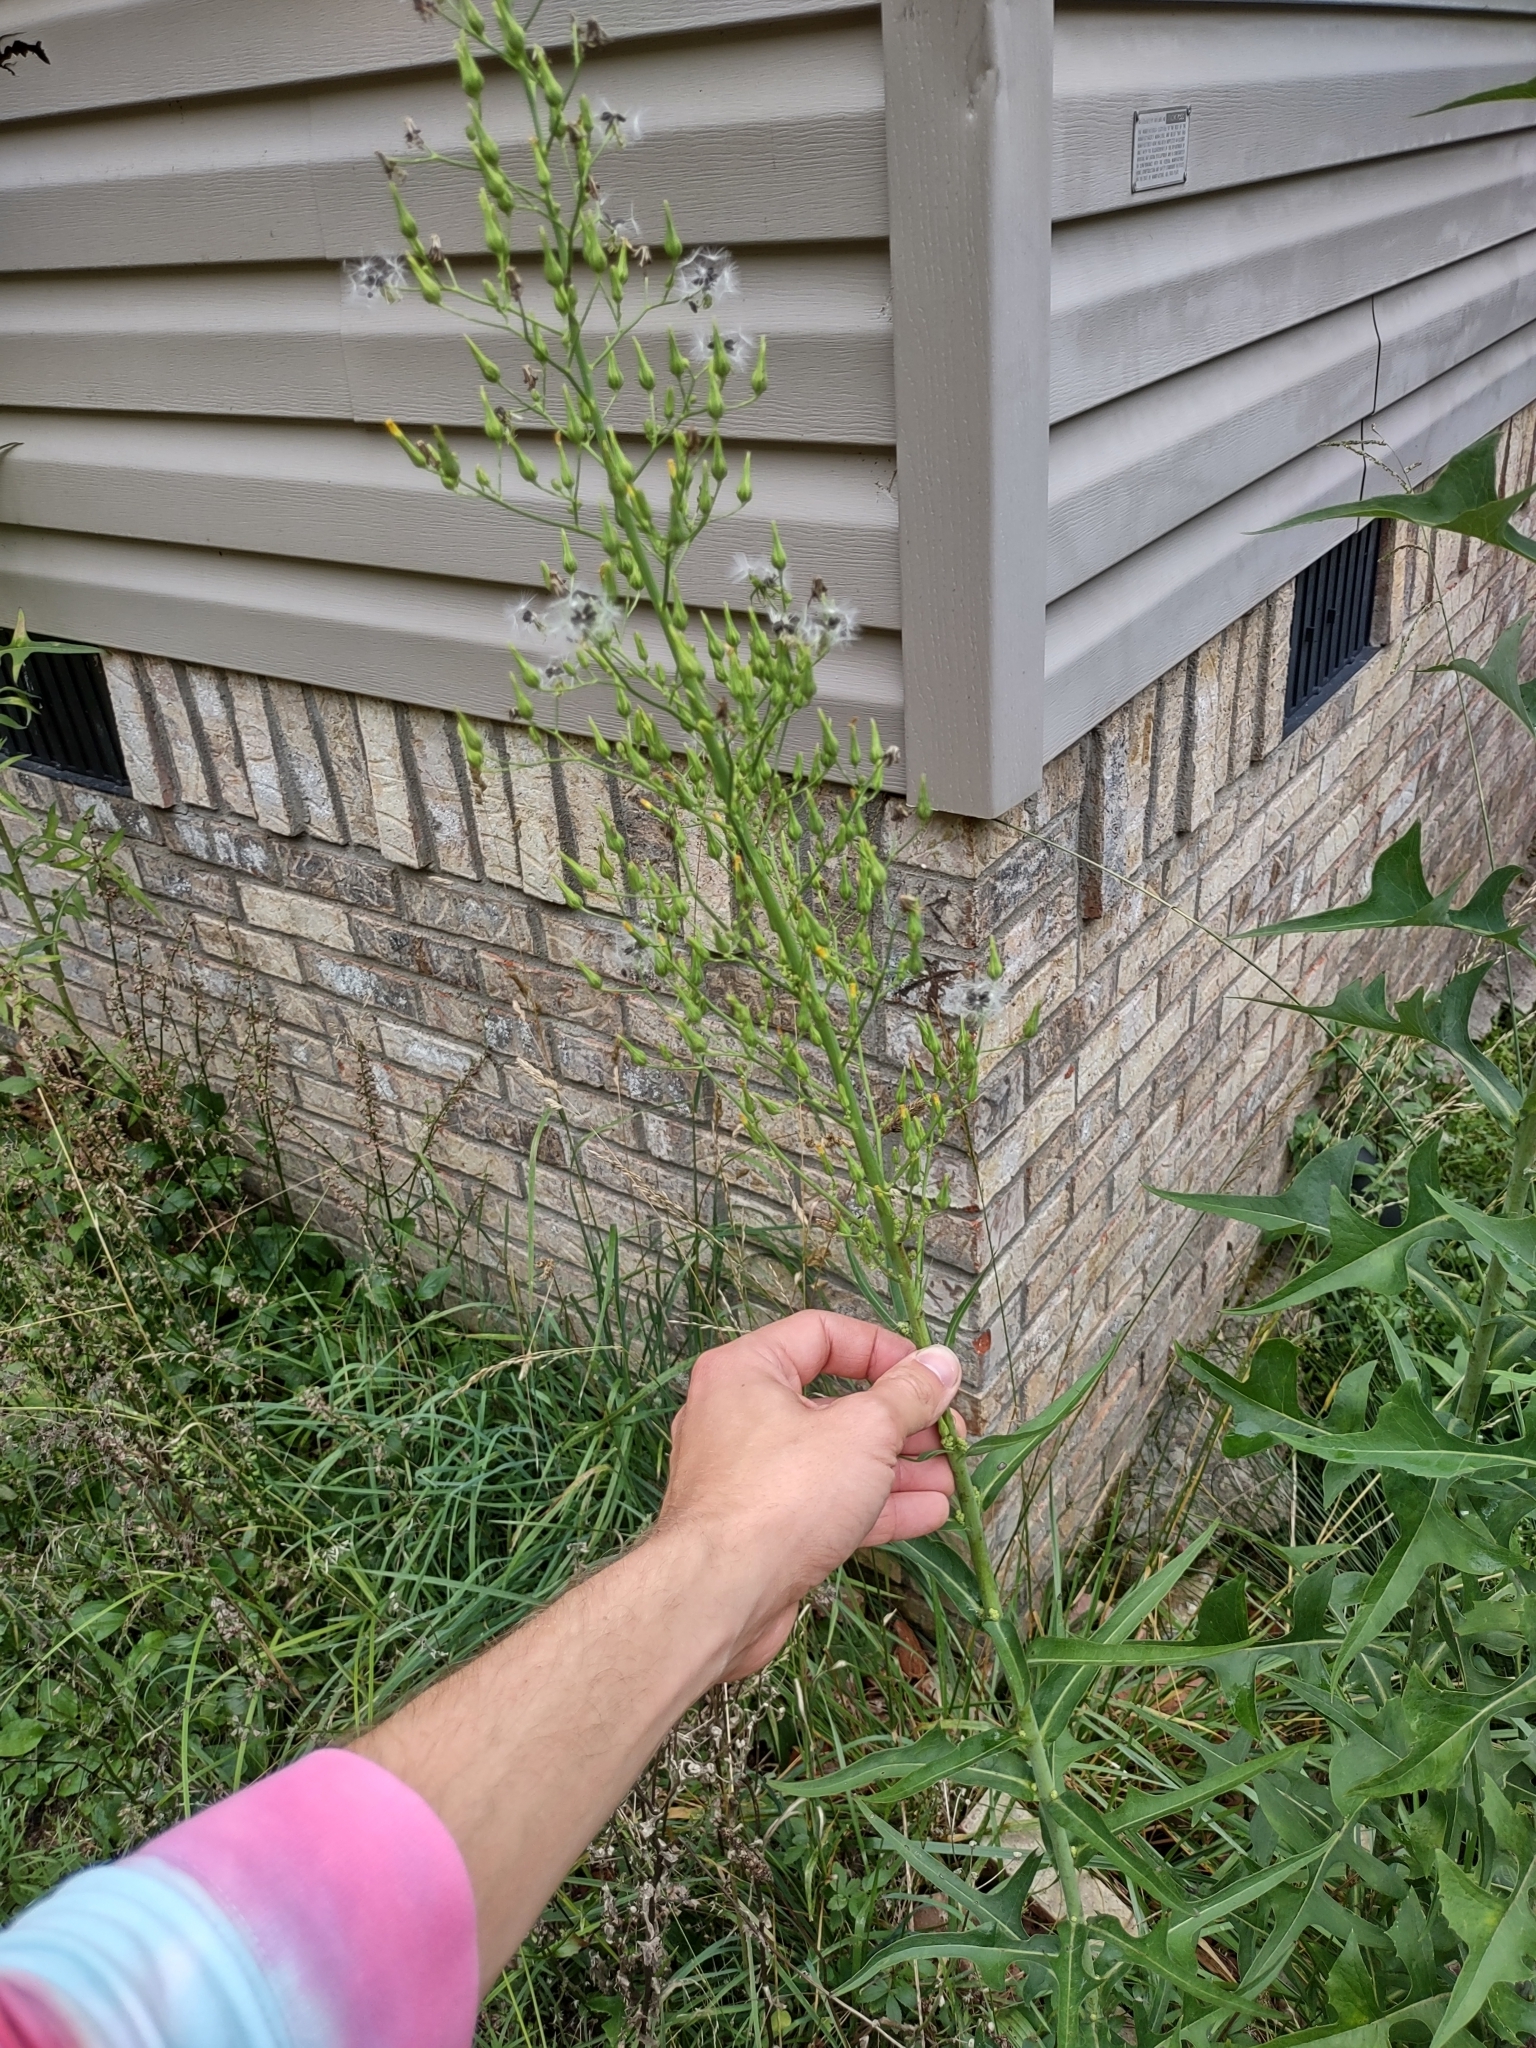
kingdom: Plantae
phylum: Tracheophyta
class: Magnoliopsida
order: Asterales
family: Asteraceae
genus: Lactuca
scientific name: Lactuca canadensis
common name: Canada lettuce
